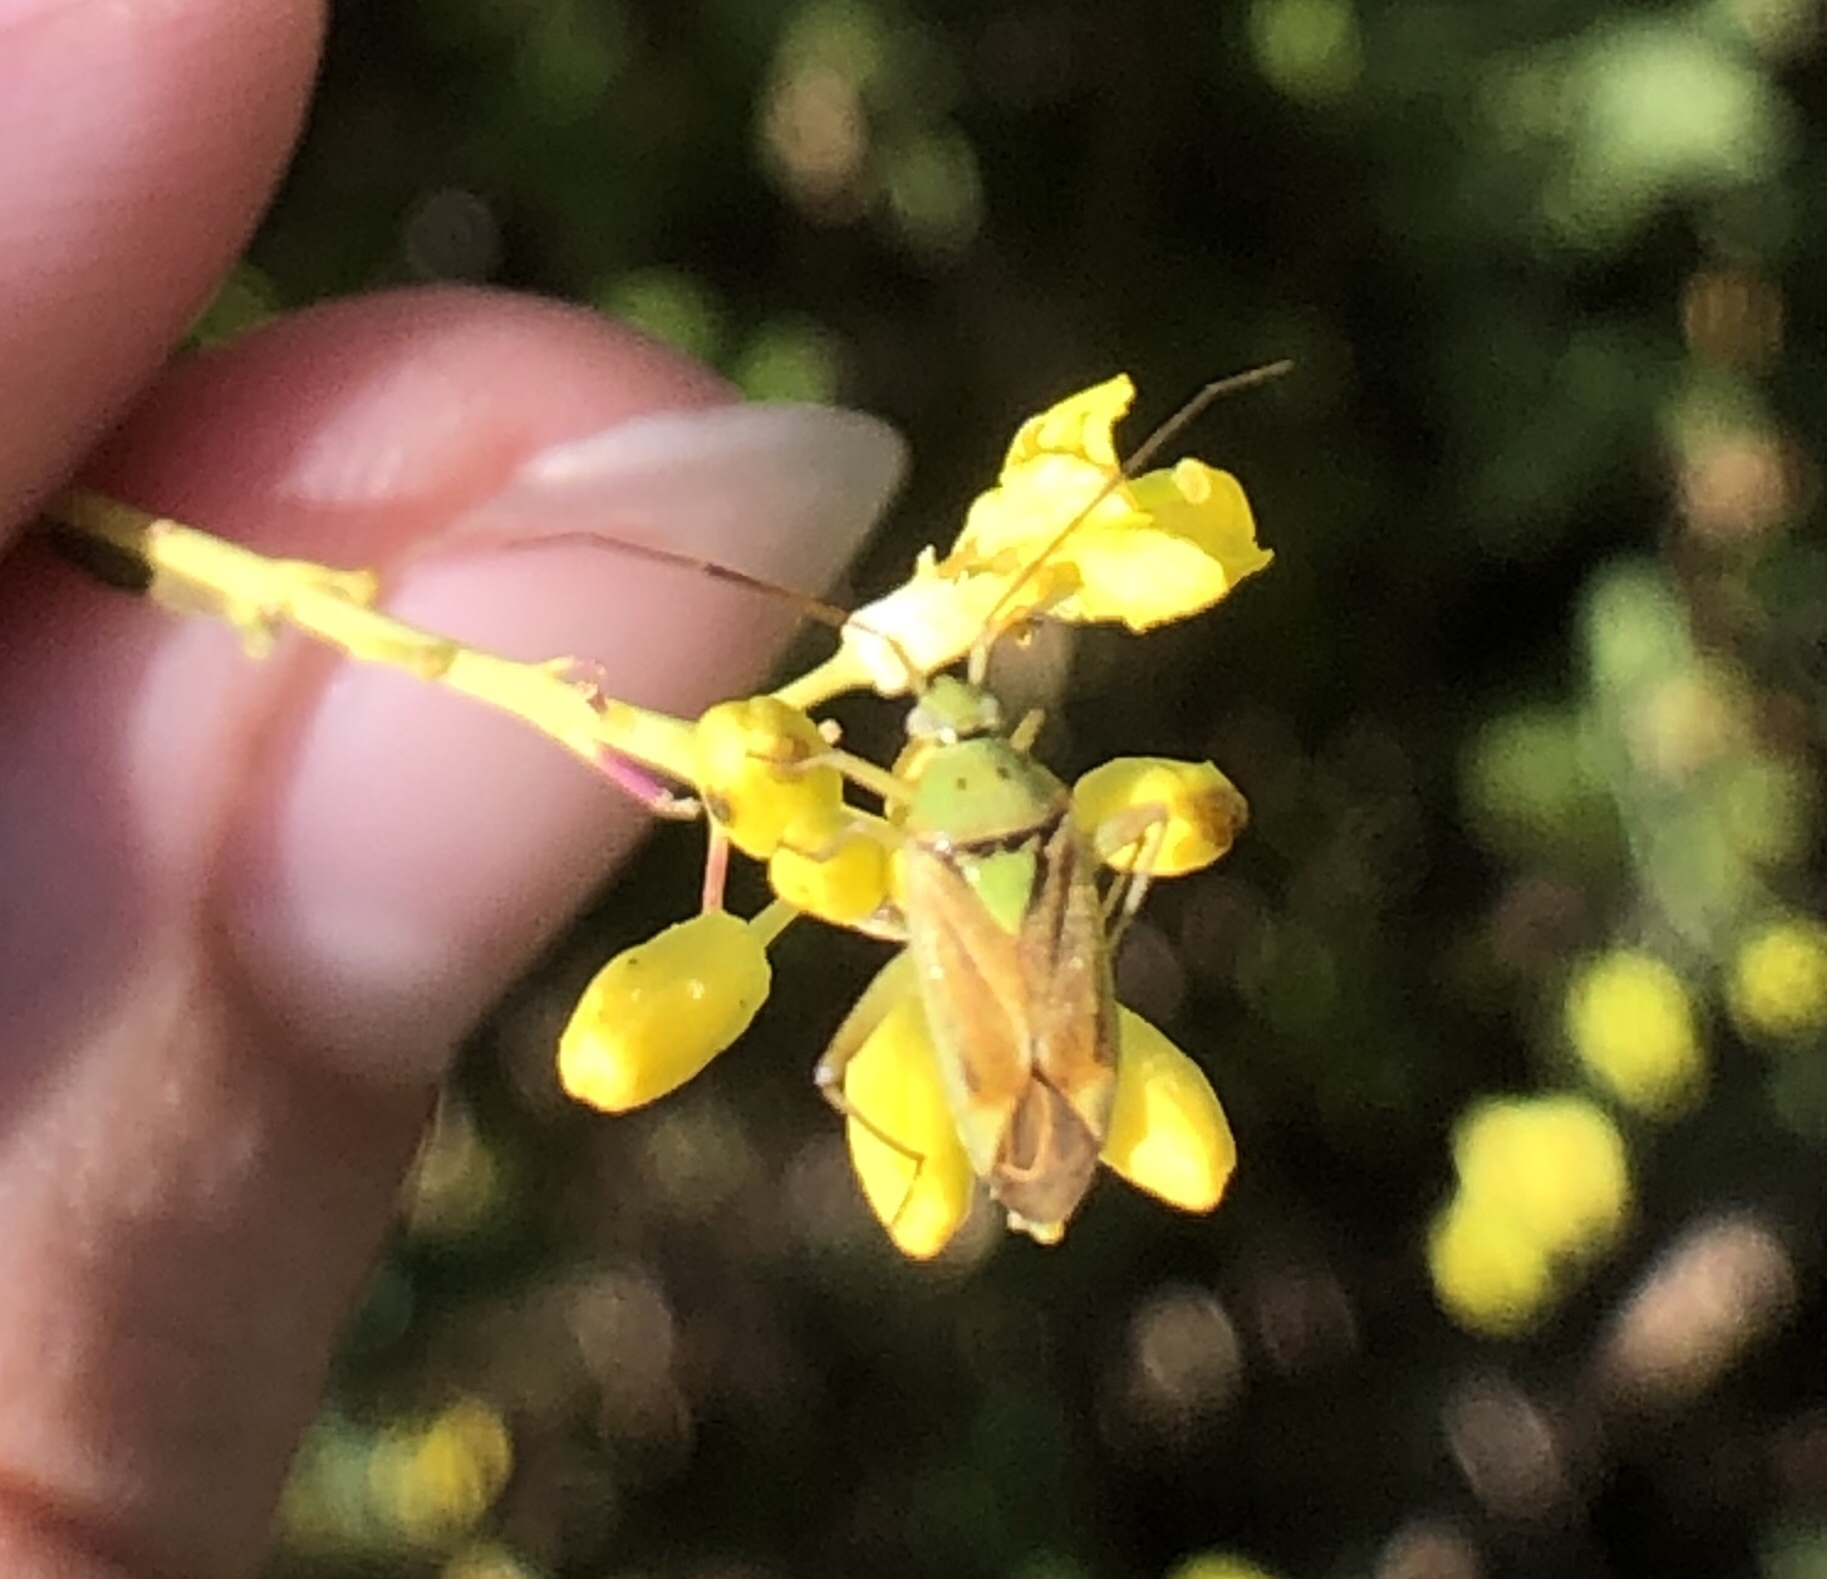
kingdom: Animalia
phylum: Arthropoda
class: Insecta
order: Hemiptera
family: Miridae
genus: Closterotomus
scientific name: Closterotomus norvegicus
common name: Plant bug
